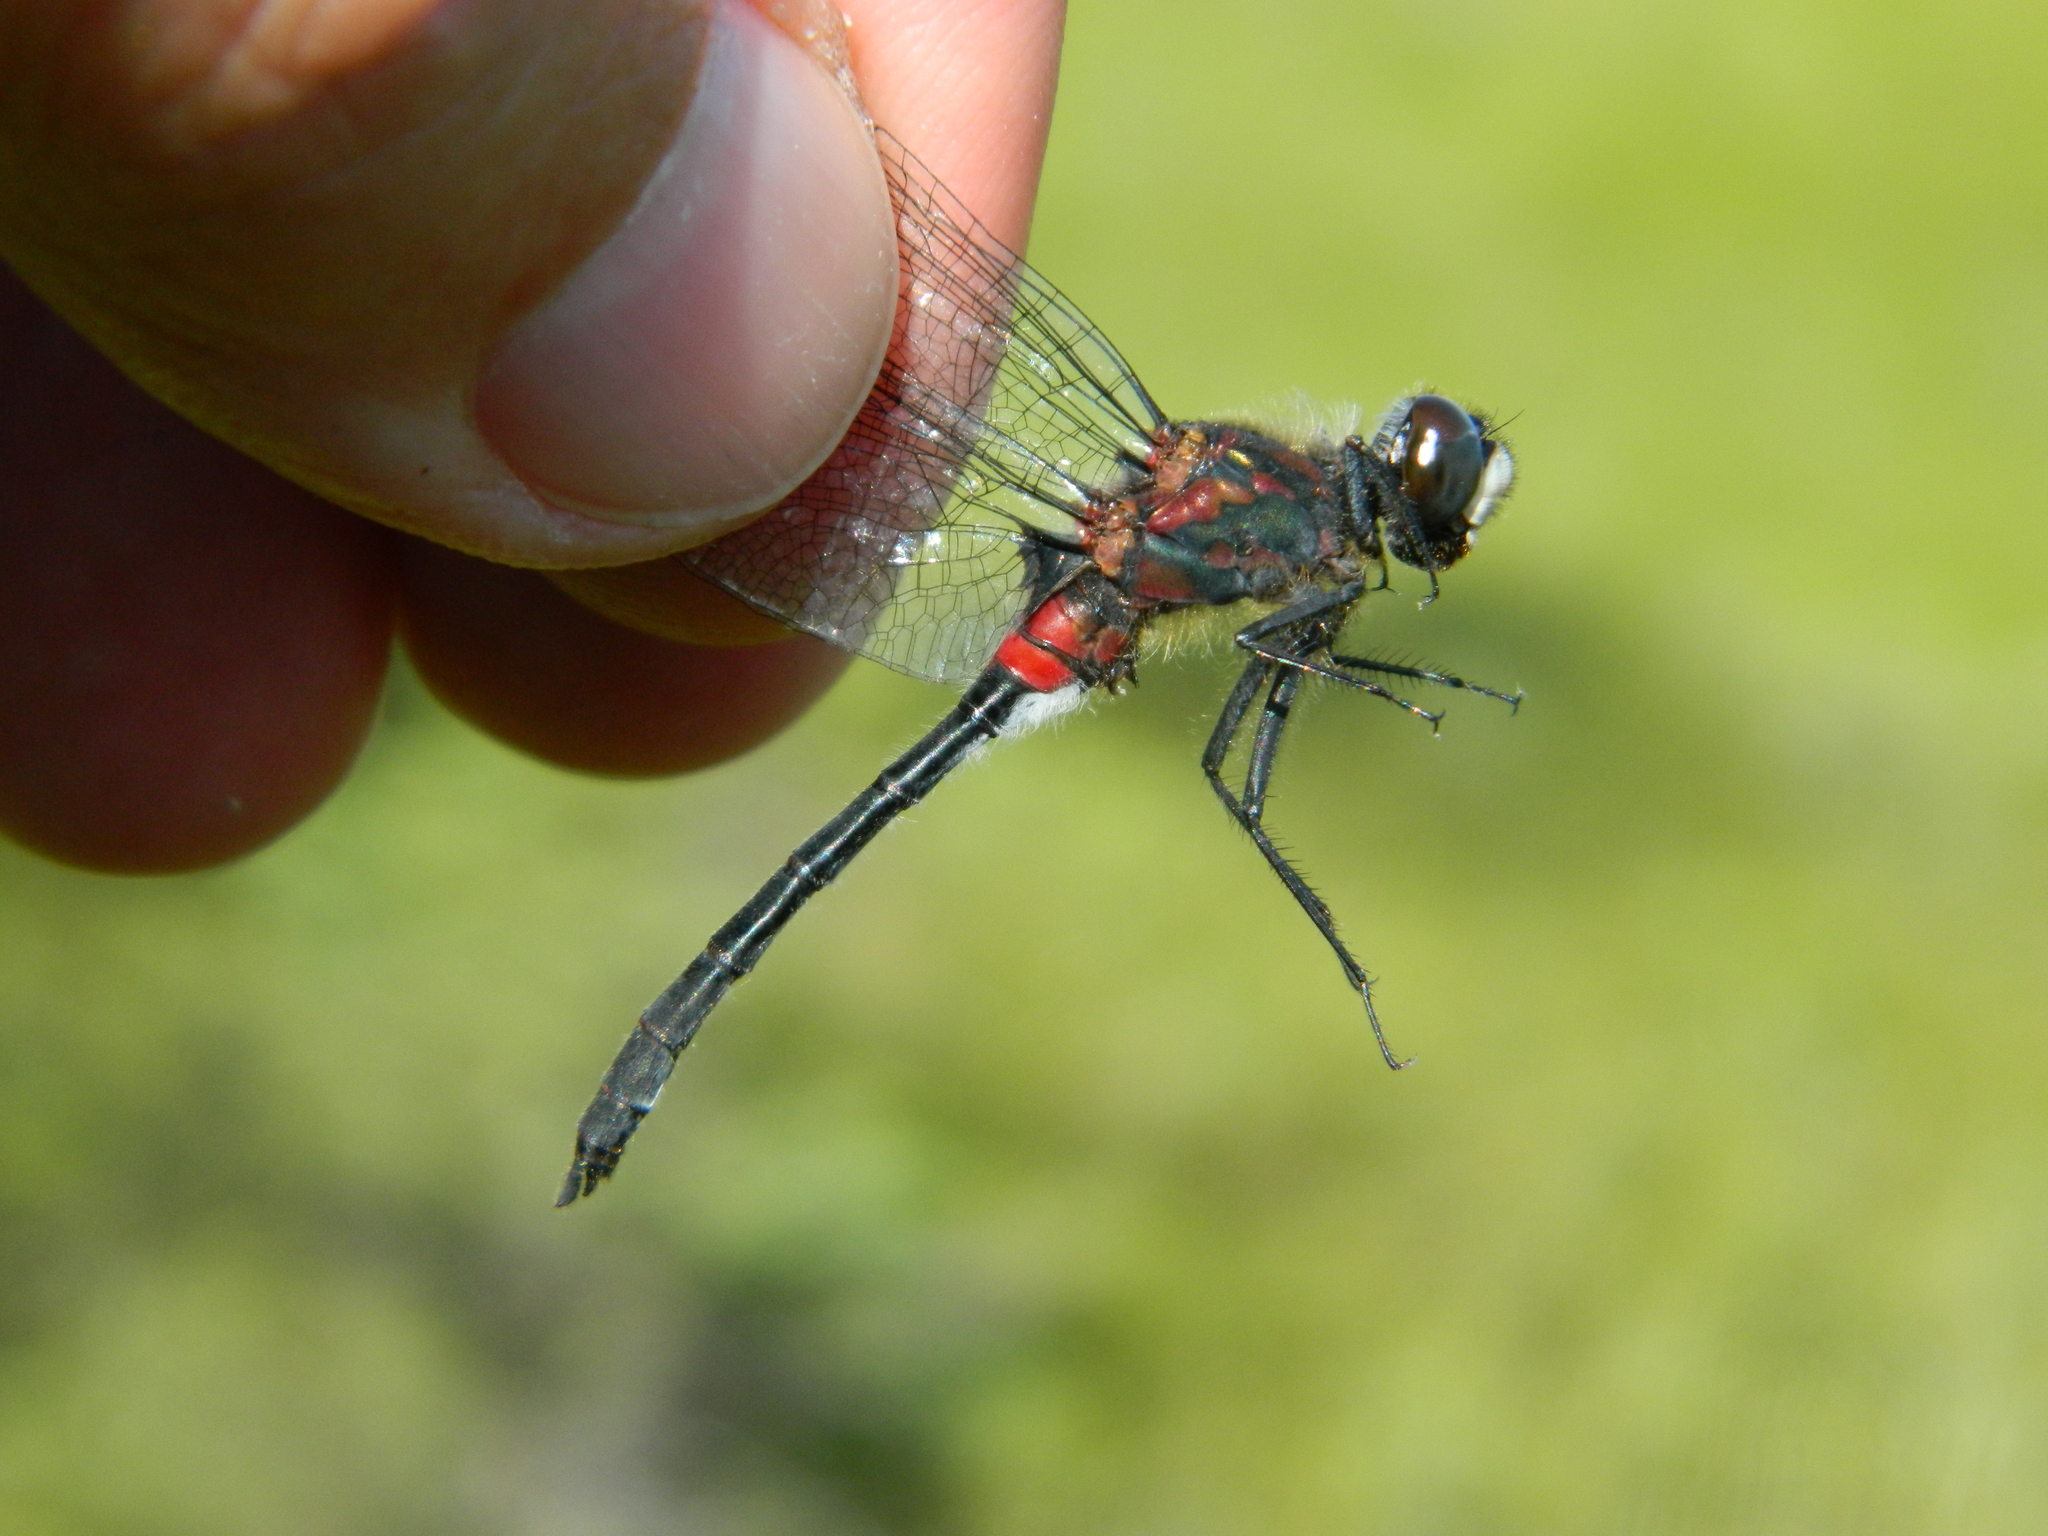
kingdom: Animalia
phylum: Arthropoda
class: Insecta
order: Odonata
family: Libellulidae
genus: Leucorrhinia
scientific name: Leucorrhinia glacialis
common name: Crimson-ringed whiteface
